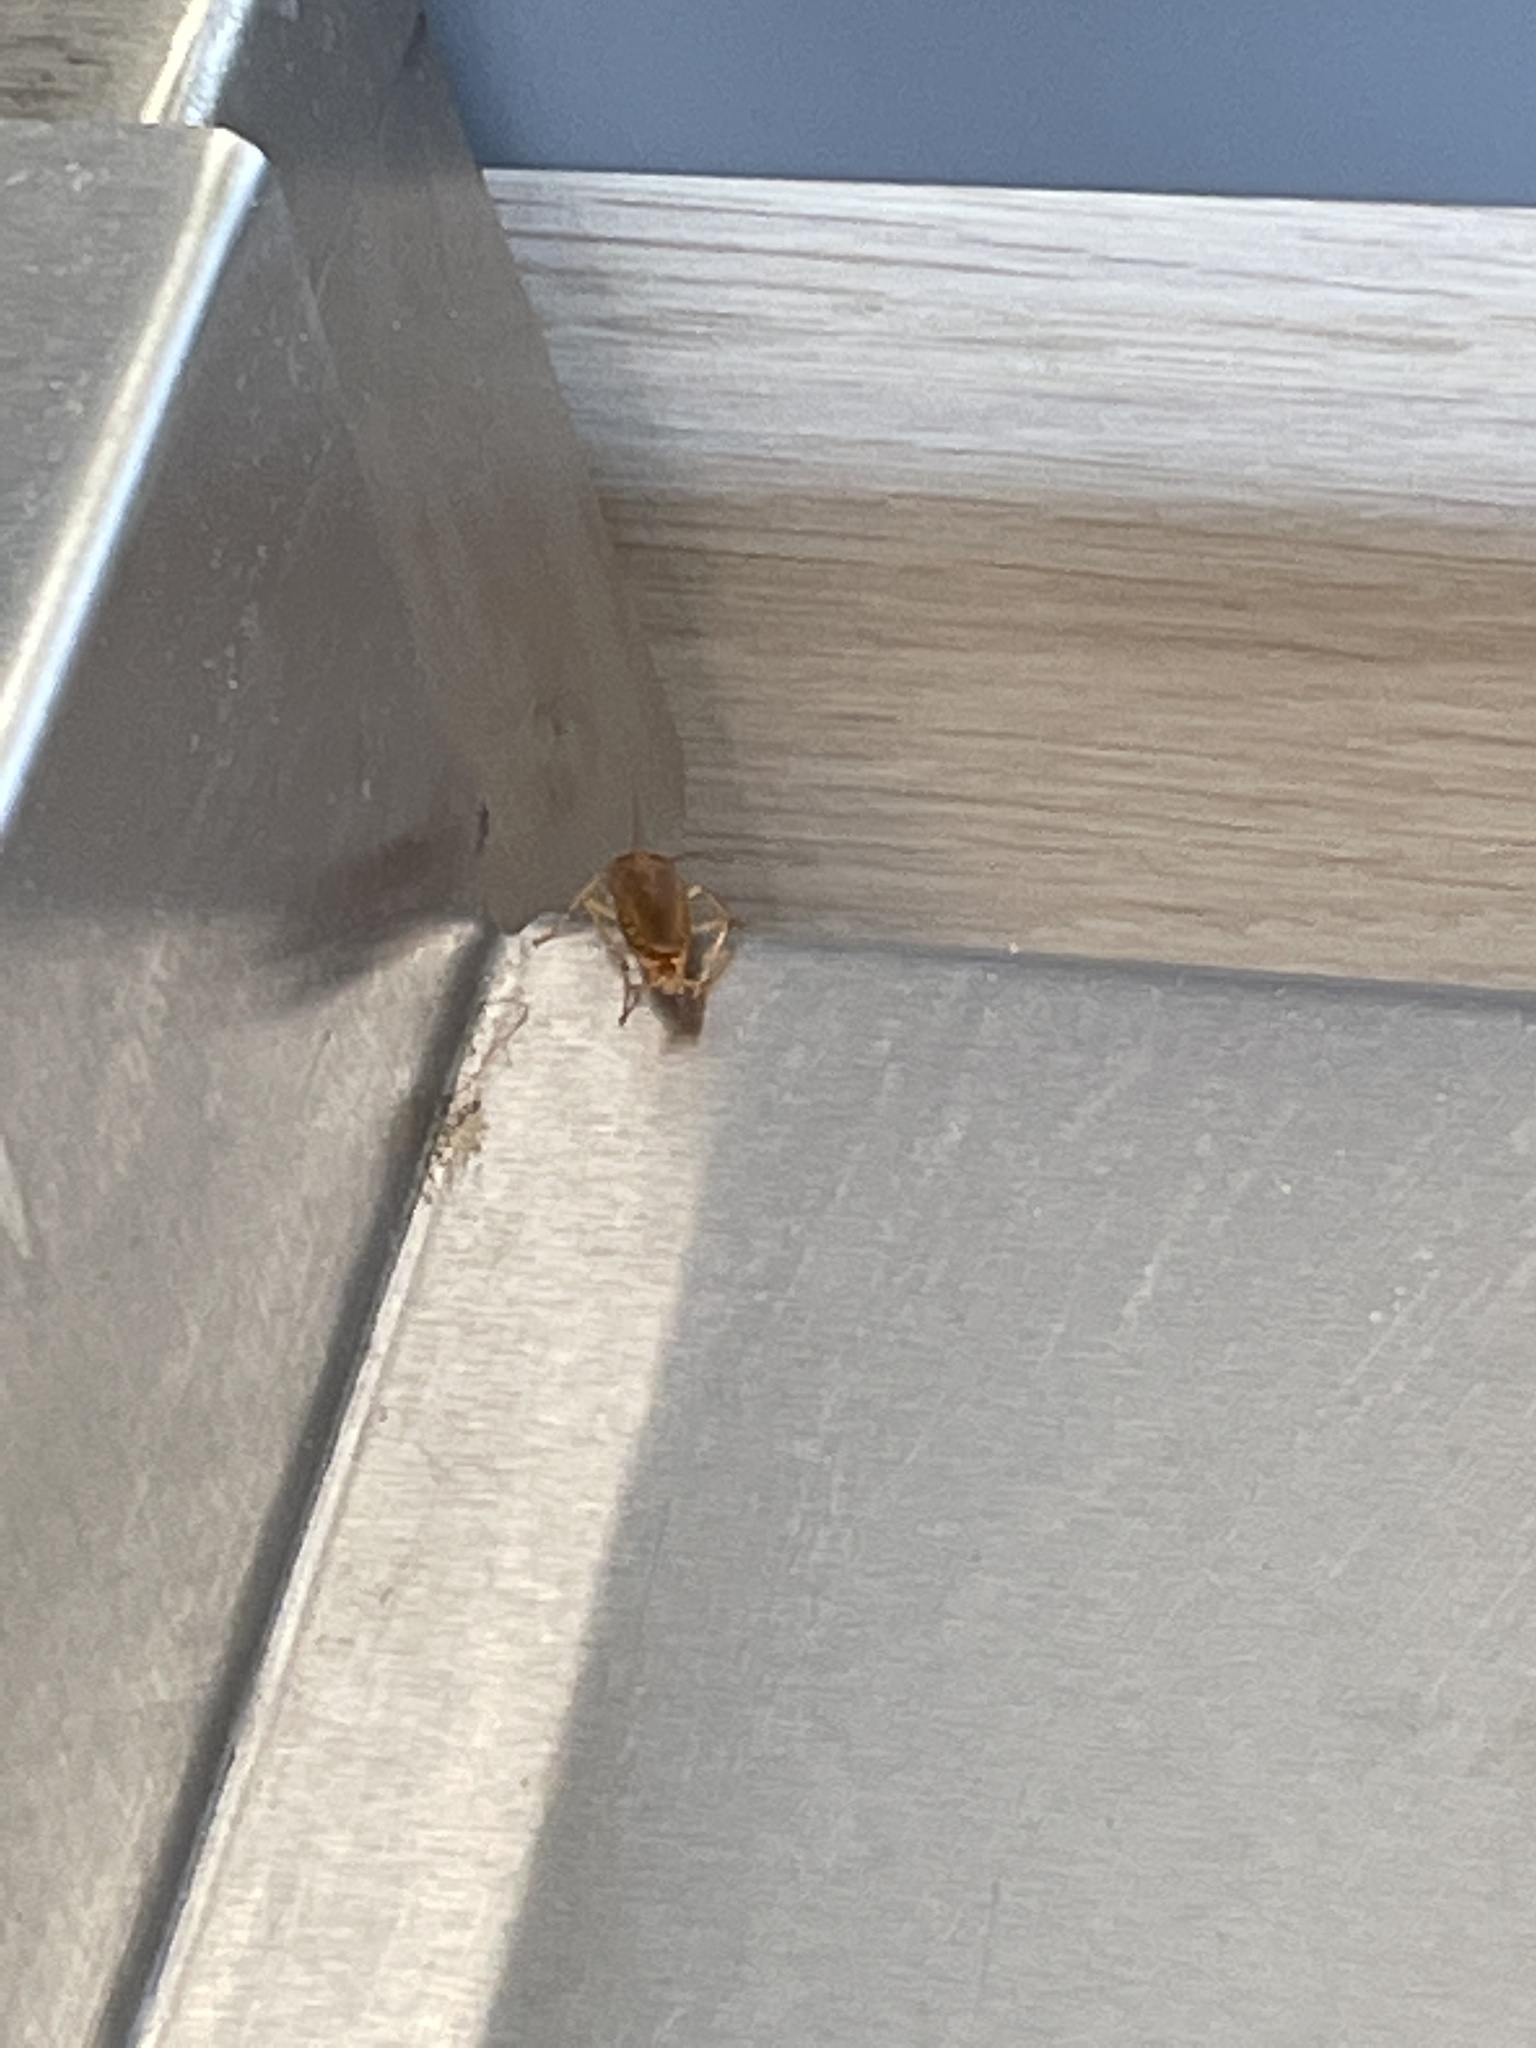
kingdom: Animalia
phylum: Arthropoda
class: Insecta
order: Blattodea
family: Ectobiidae
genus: Blattella
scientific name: Blattella germanica
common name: German cockroach
